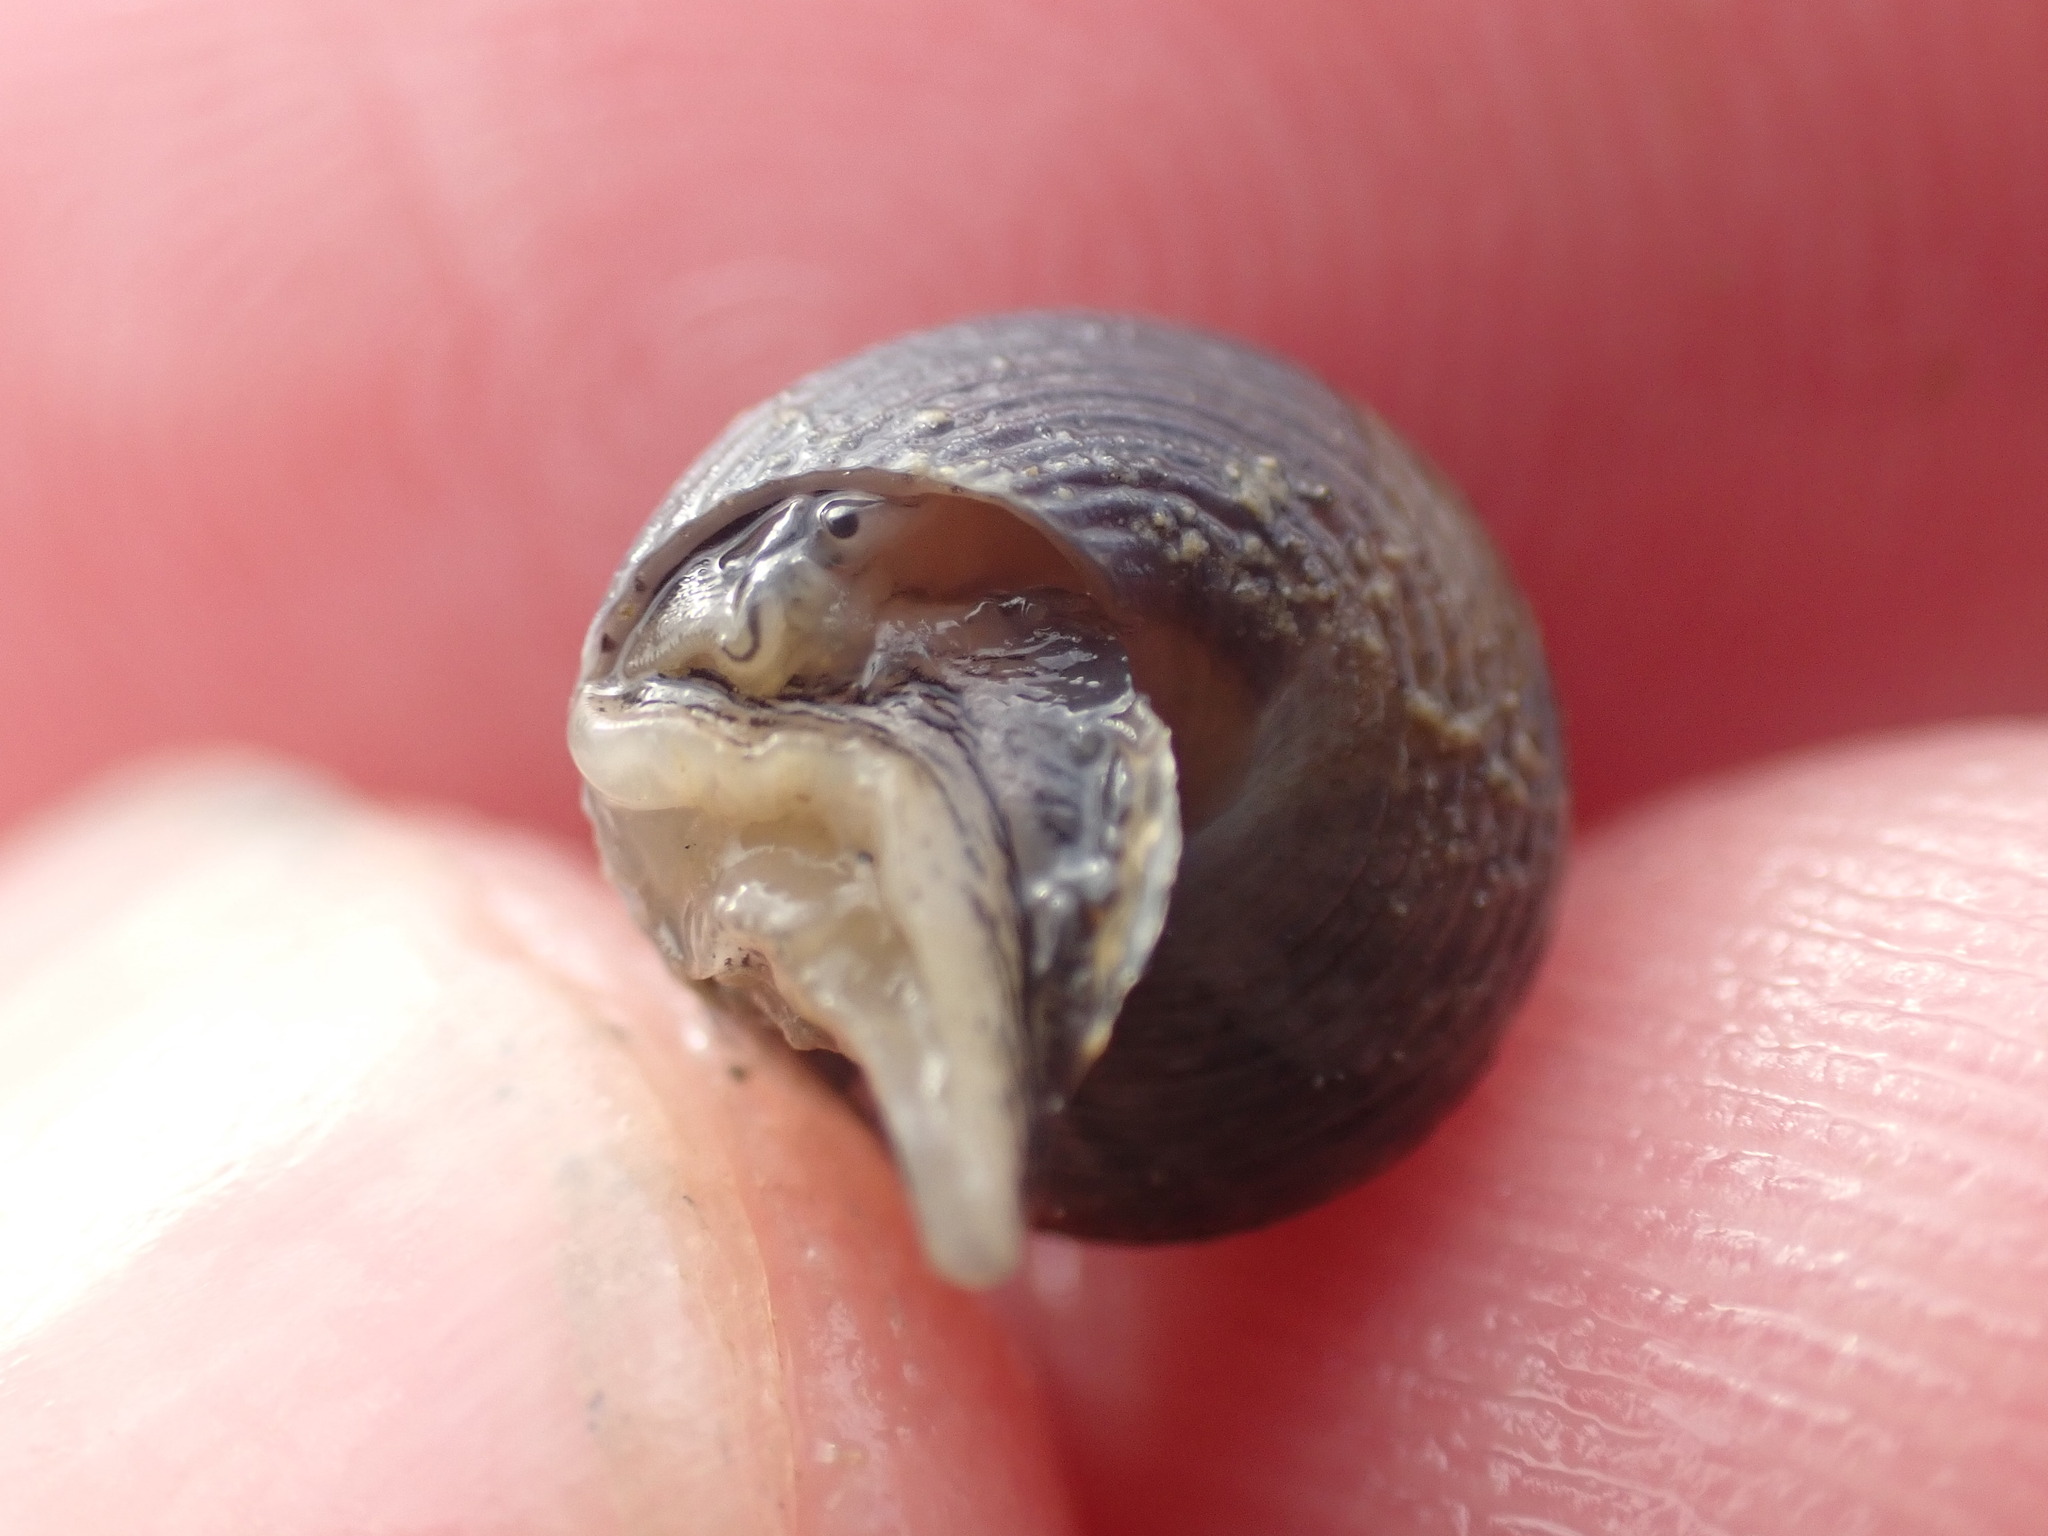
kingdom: Animalia
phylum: Mollusca
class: Gastropoda
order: Trochida
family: Trochidae
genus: Micrelenchus
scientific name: Micrelenchus huttonii
